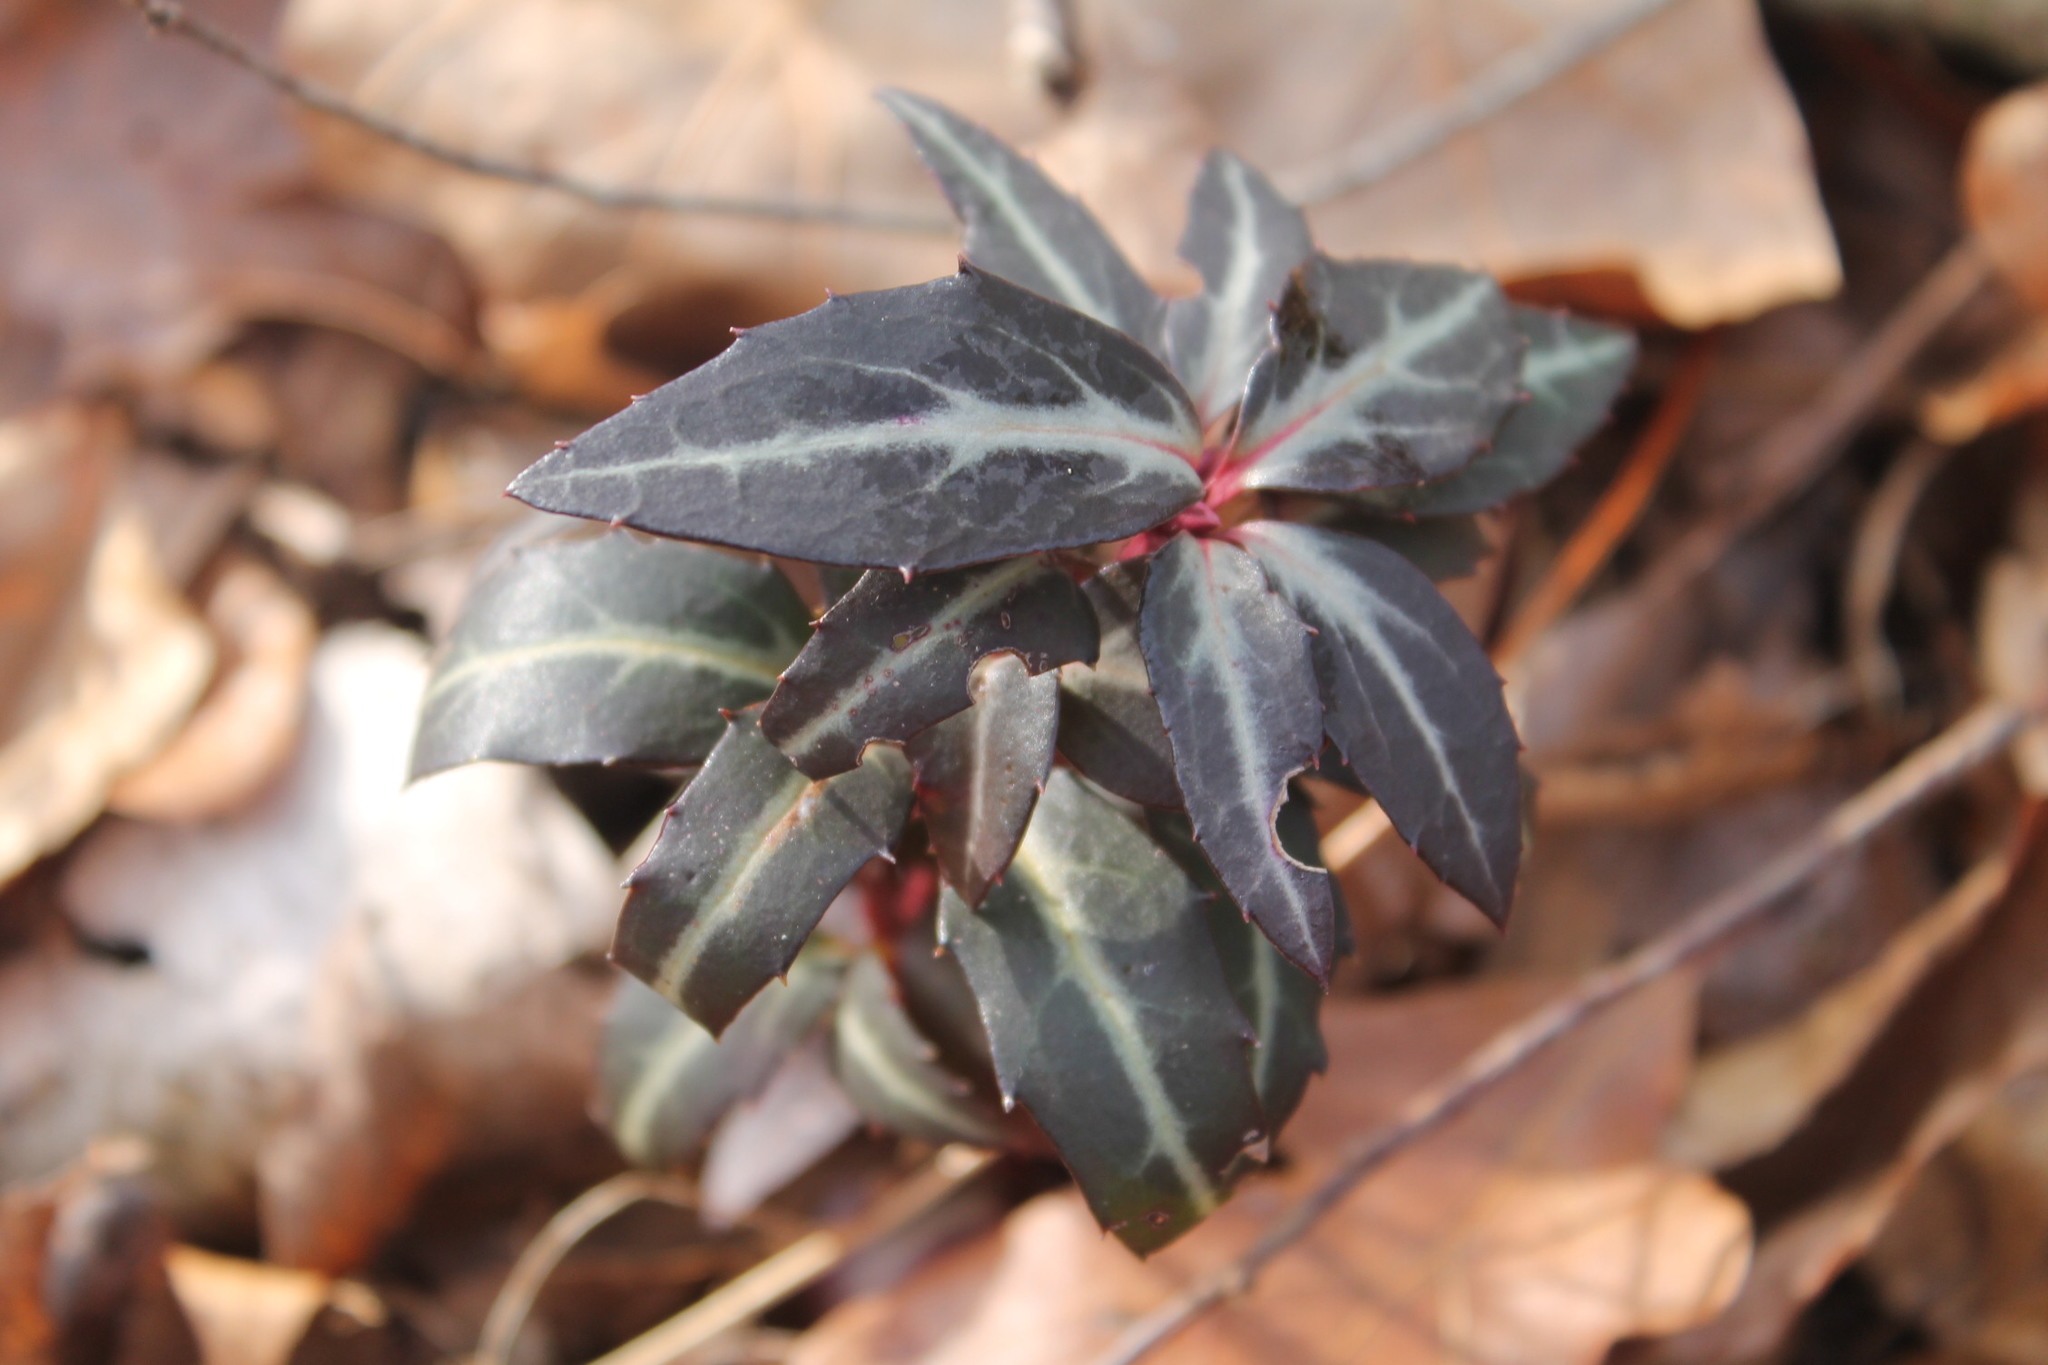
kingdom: Plantae
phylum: Tracheophyta
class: Magnoliopsida
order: Ericales
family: Ericaceae
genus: Chimaphila
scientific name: Chimaphila maculata
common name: Spotted pipsissewa
